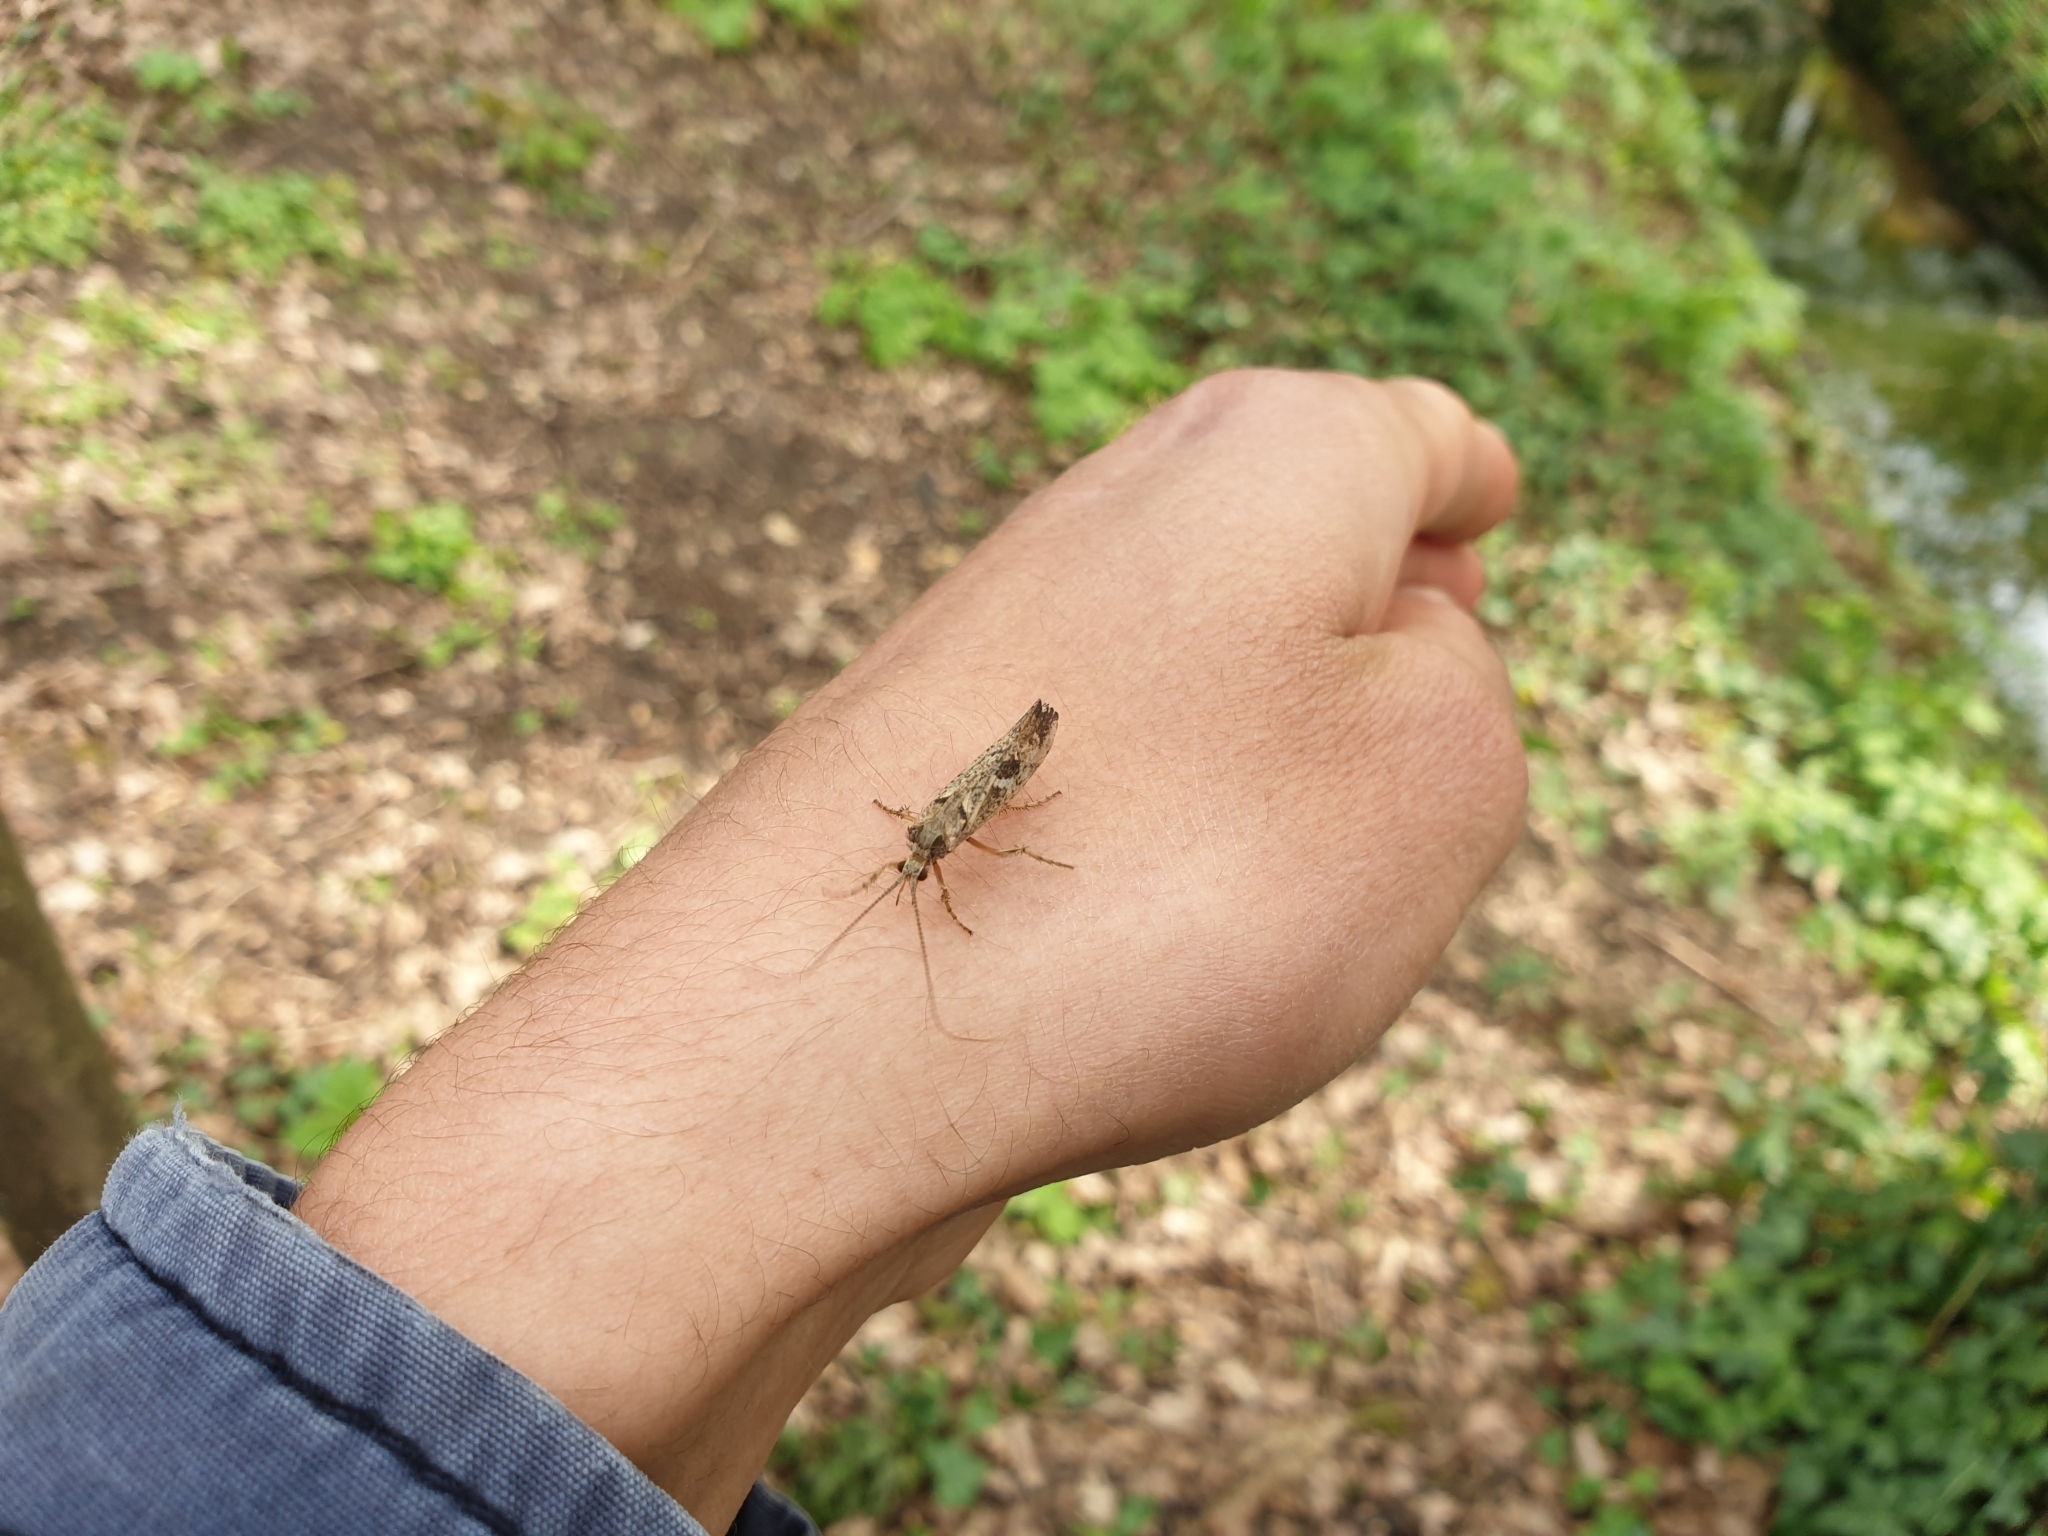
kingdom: Animalia
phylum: Arthropoda
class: Insecta
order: Trichoptera
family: Limnephilidae
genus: Glyphotaelius
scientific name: Glyphotaelius pellucidus
